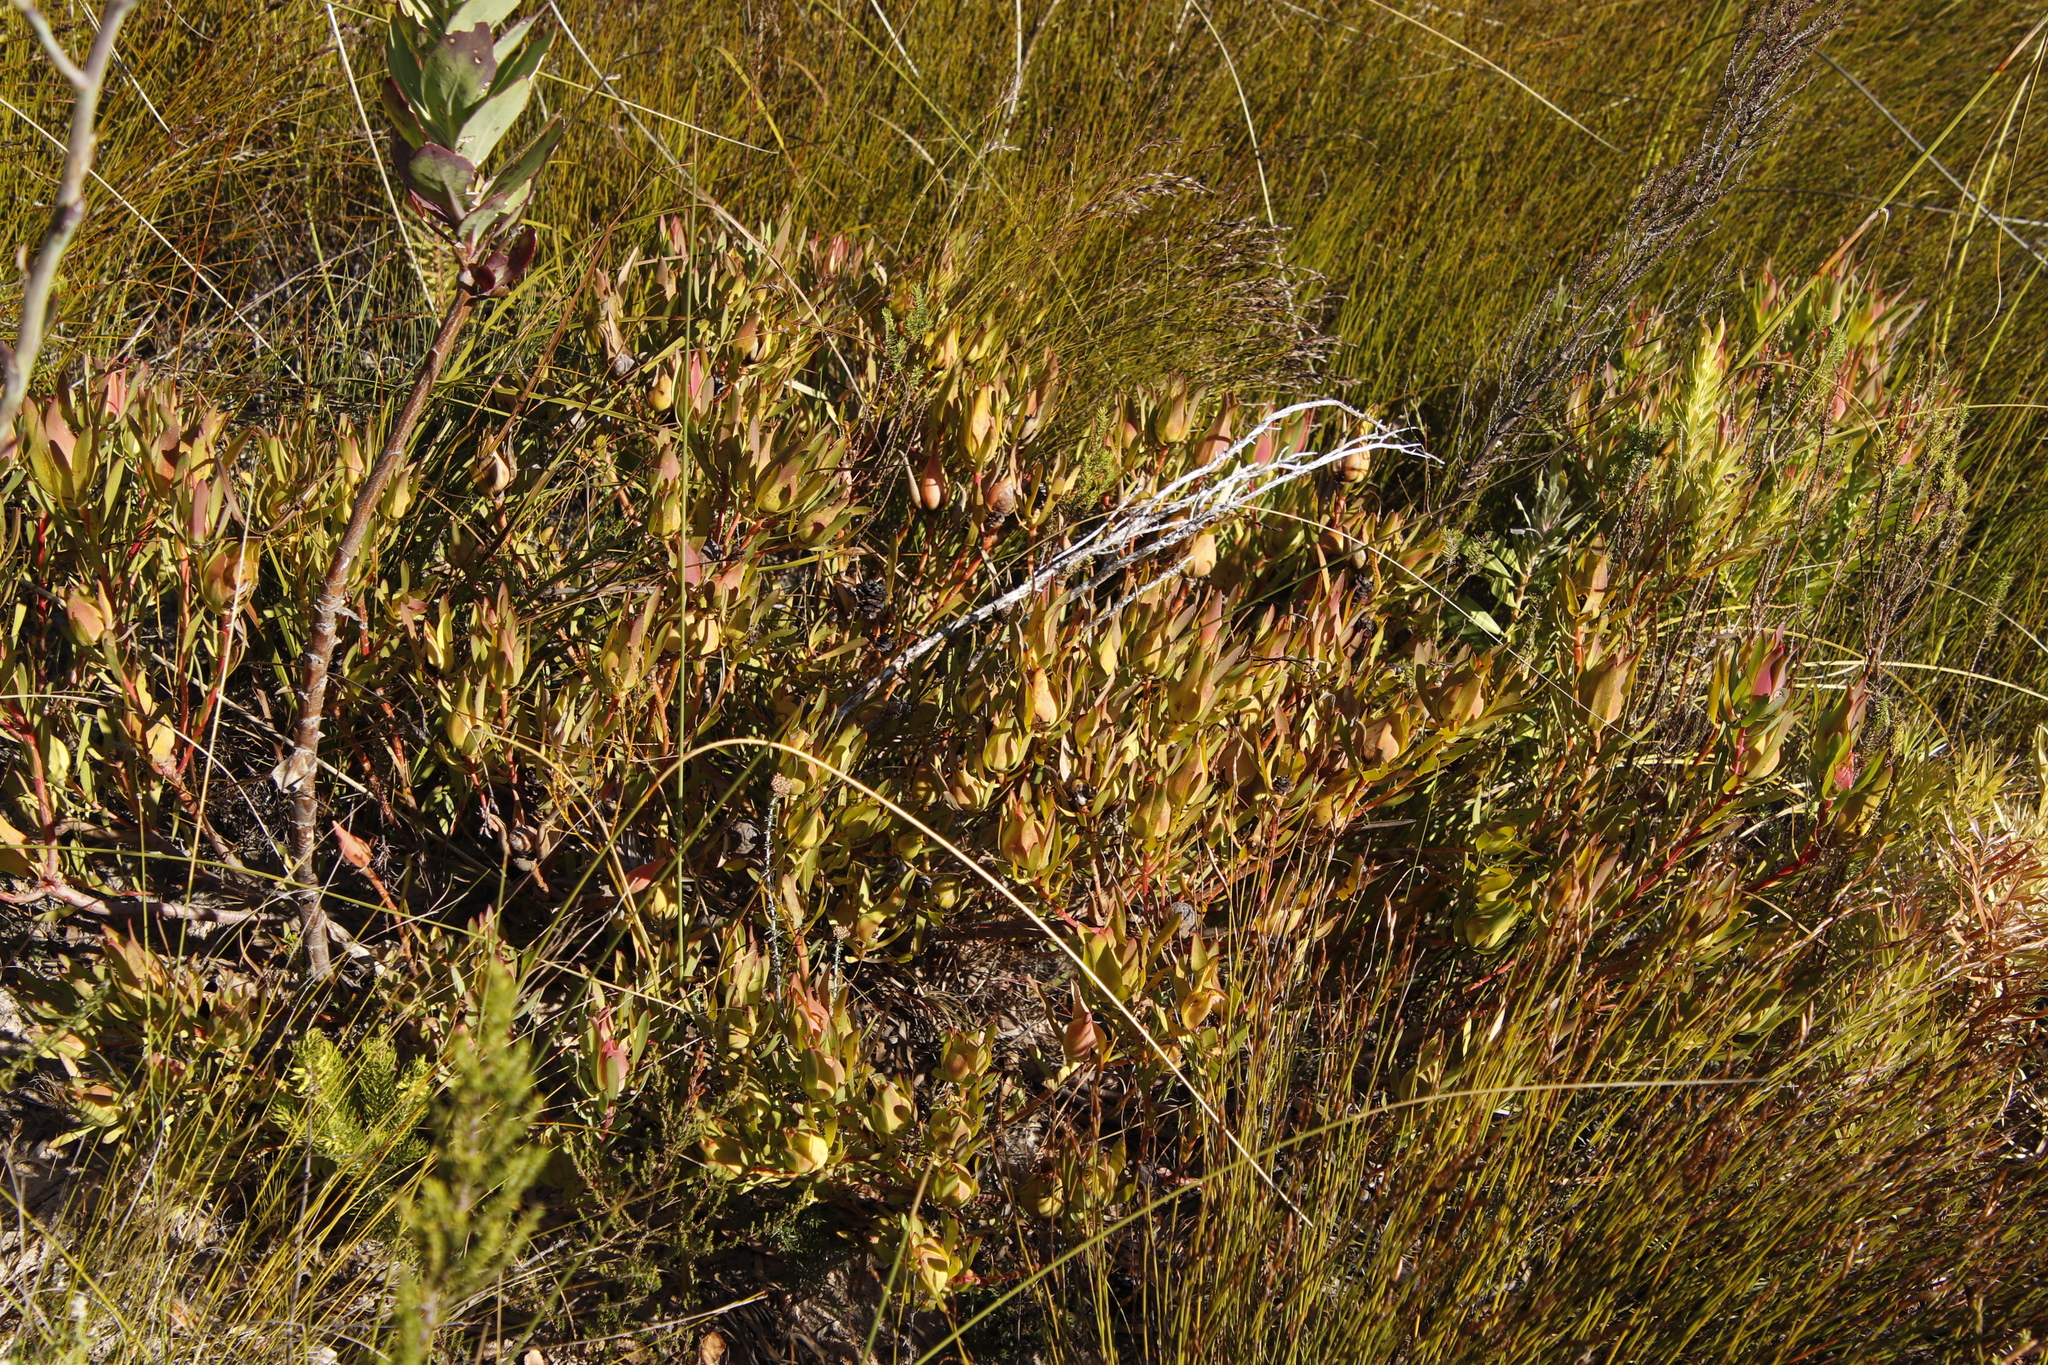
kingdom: Plantae
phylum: Tracheophyta
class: Magnoliopsida
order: Proteales
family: Proteaceae
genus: Leucadendron
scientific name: Leucadendron salignum
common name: Common sunshine conebush
